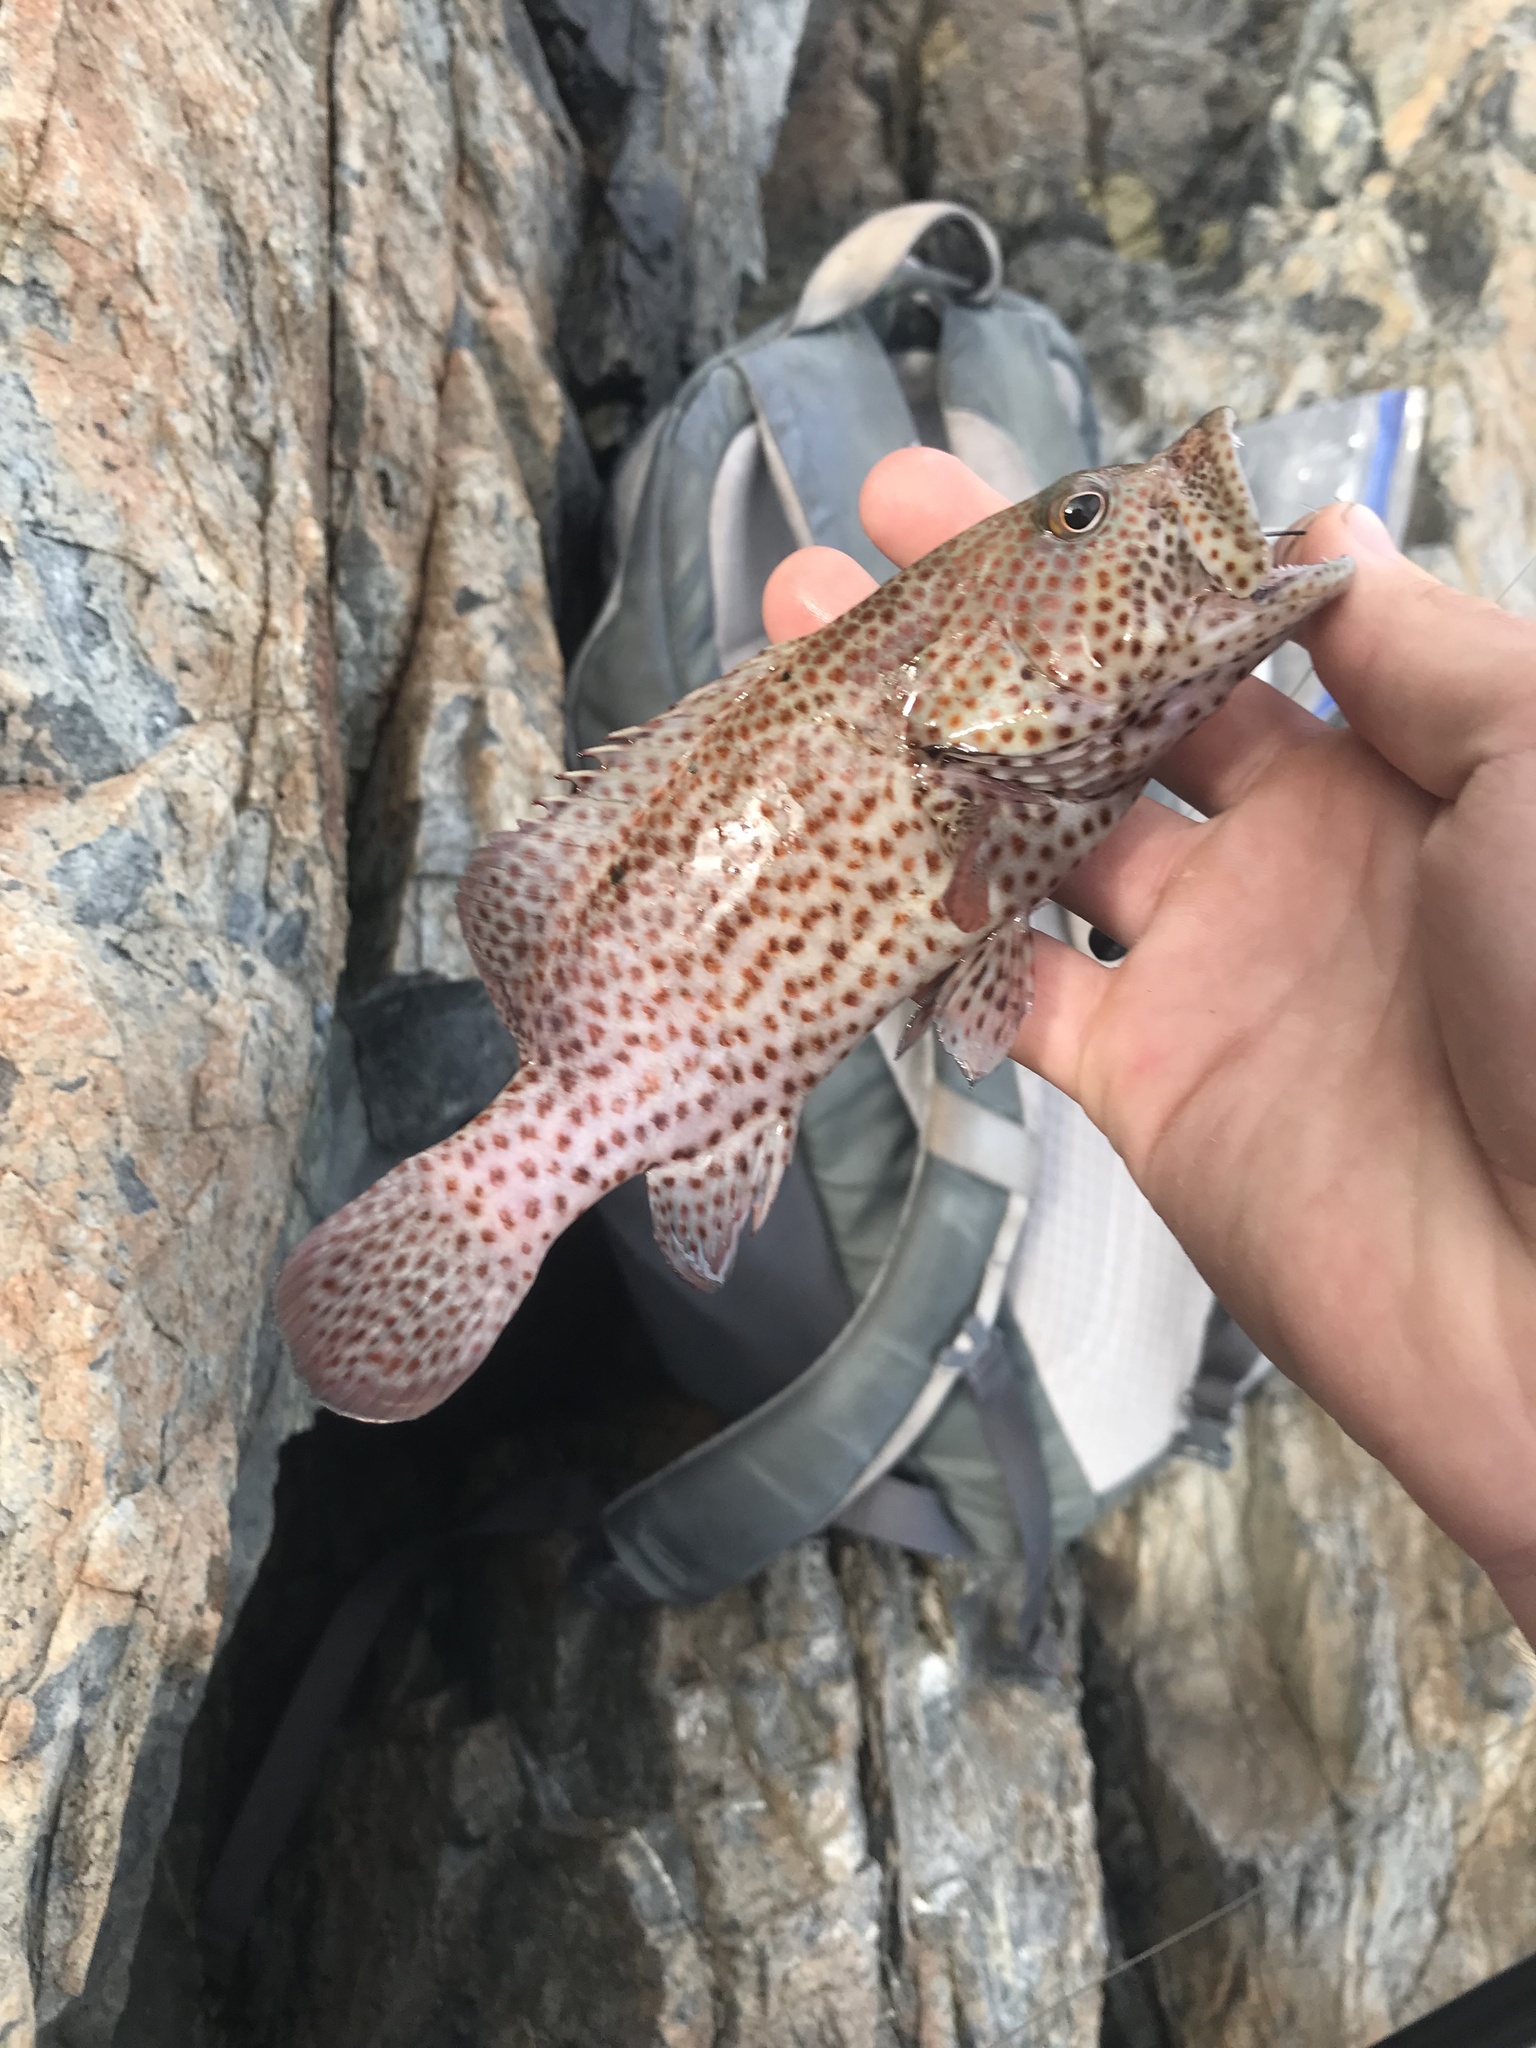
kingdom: Animalia
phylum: Chordata
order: Perciformes
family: Serranidae
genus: Cephalopholis
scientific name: Cephalopholis cruentata
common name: Graysby
